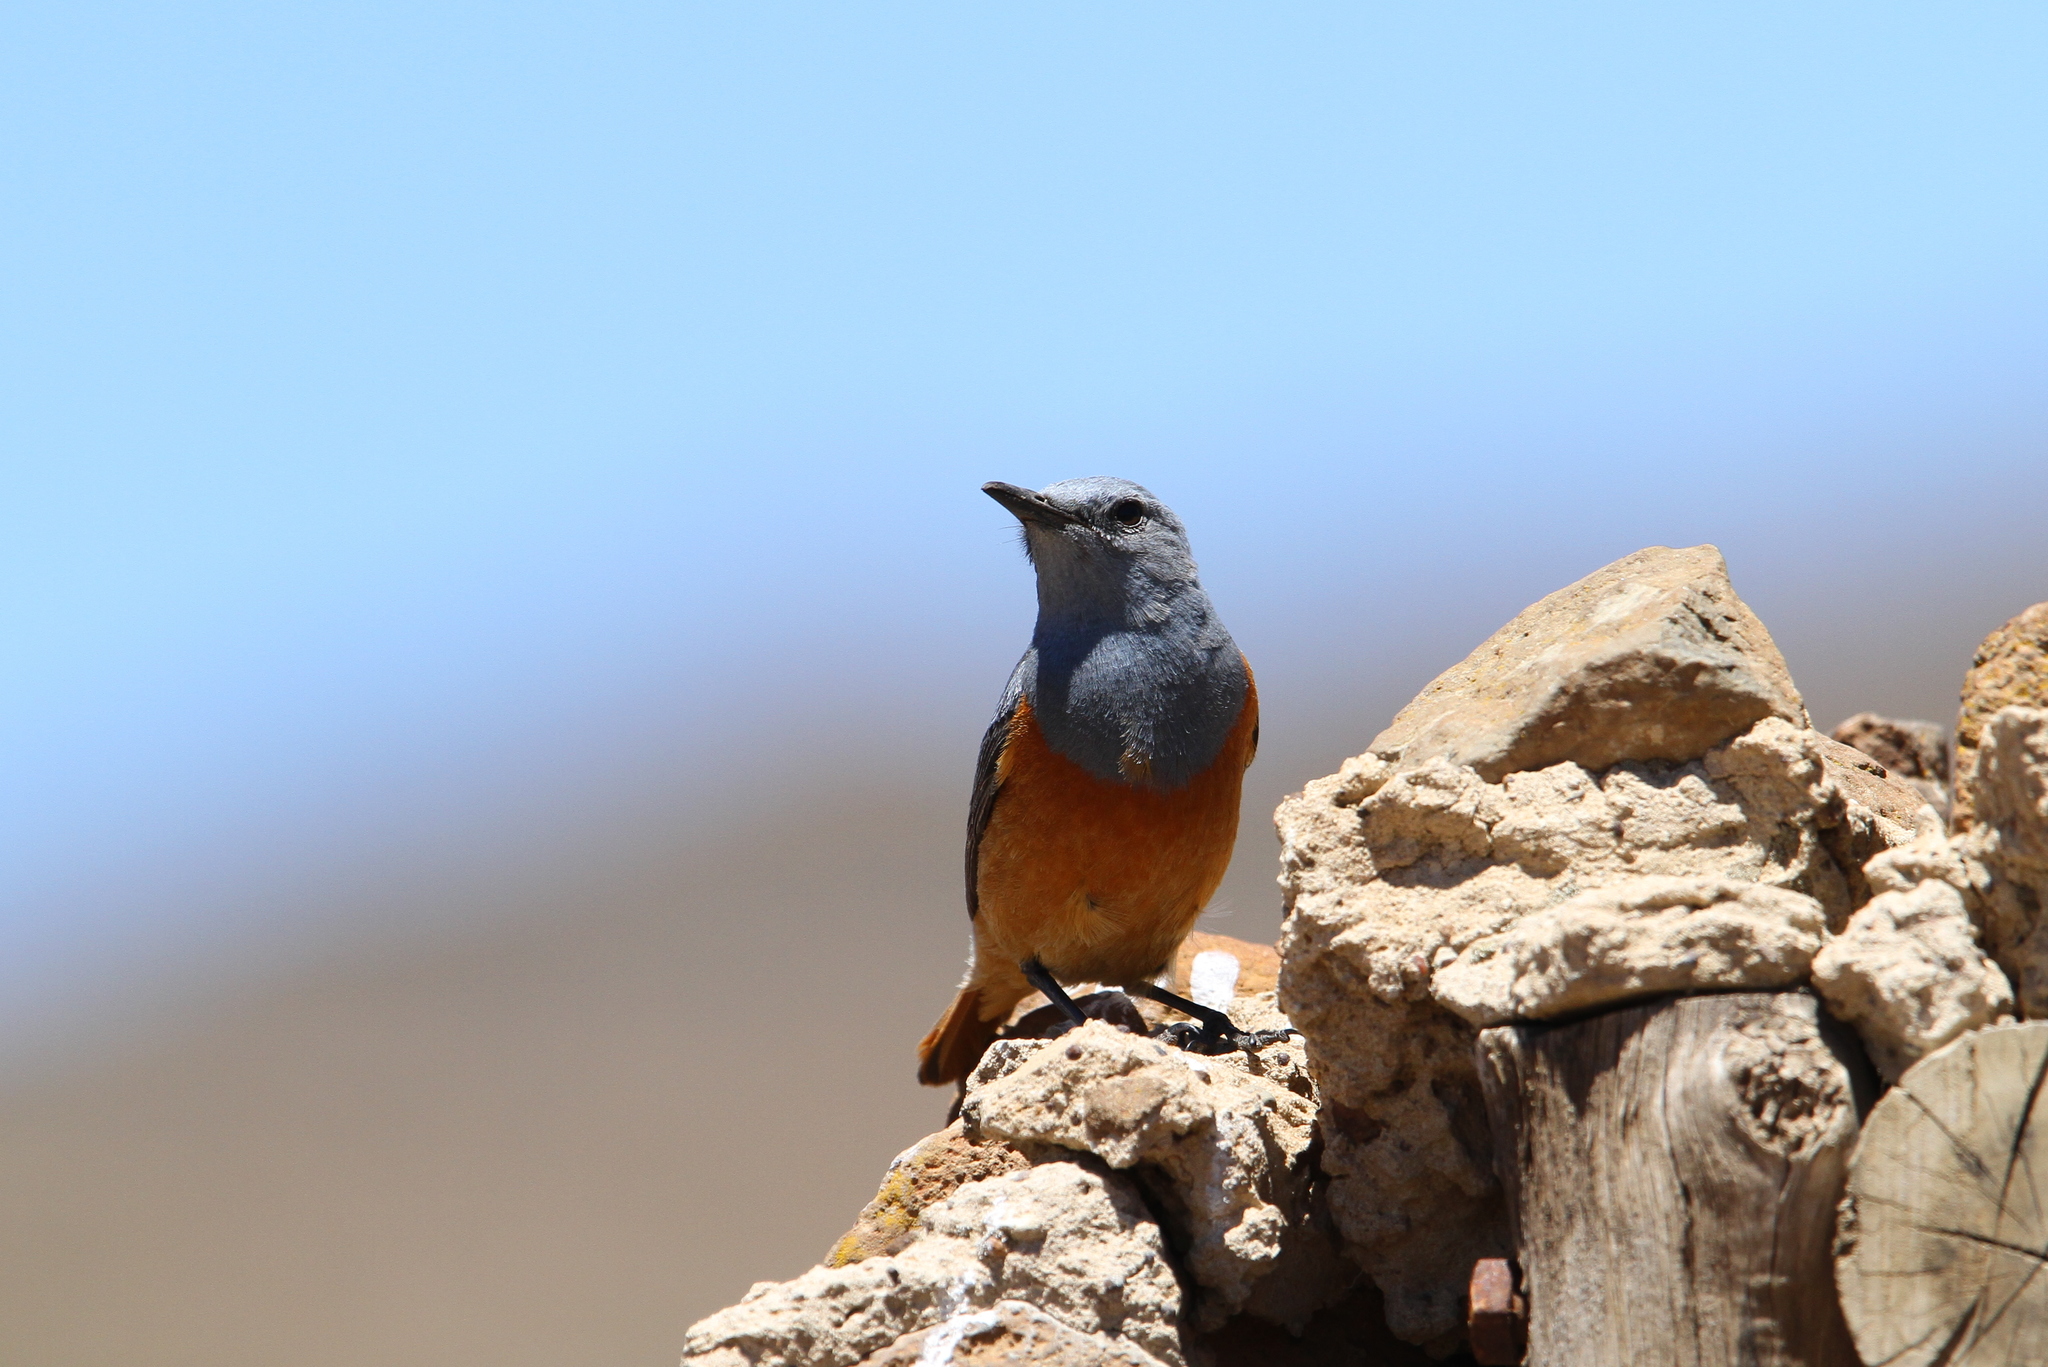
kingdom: Animalia
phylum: Chordata
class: Aves
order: Passeriformes
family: Muscicapidae
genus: Monticola
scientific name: Monticola explorator
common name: Sentinel rock thrush
